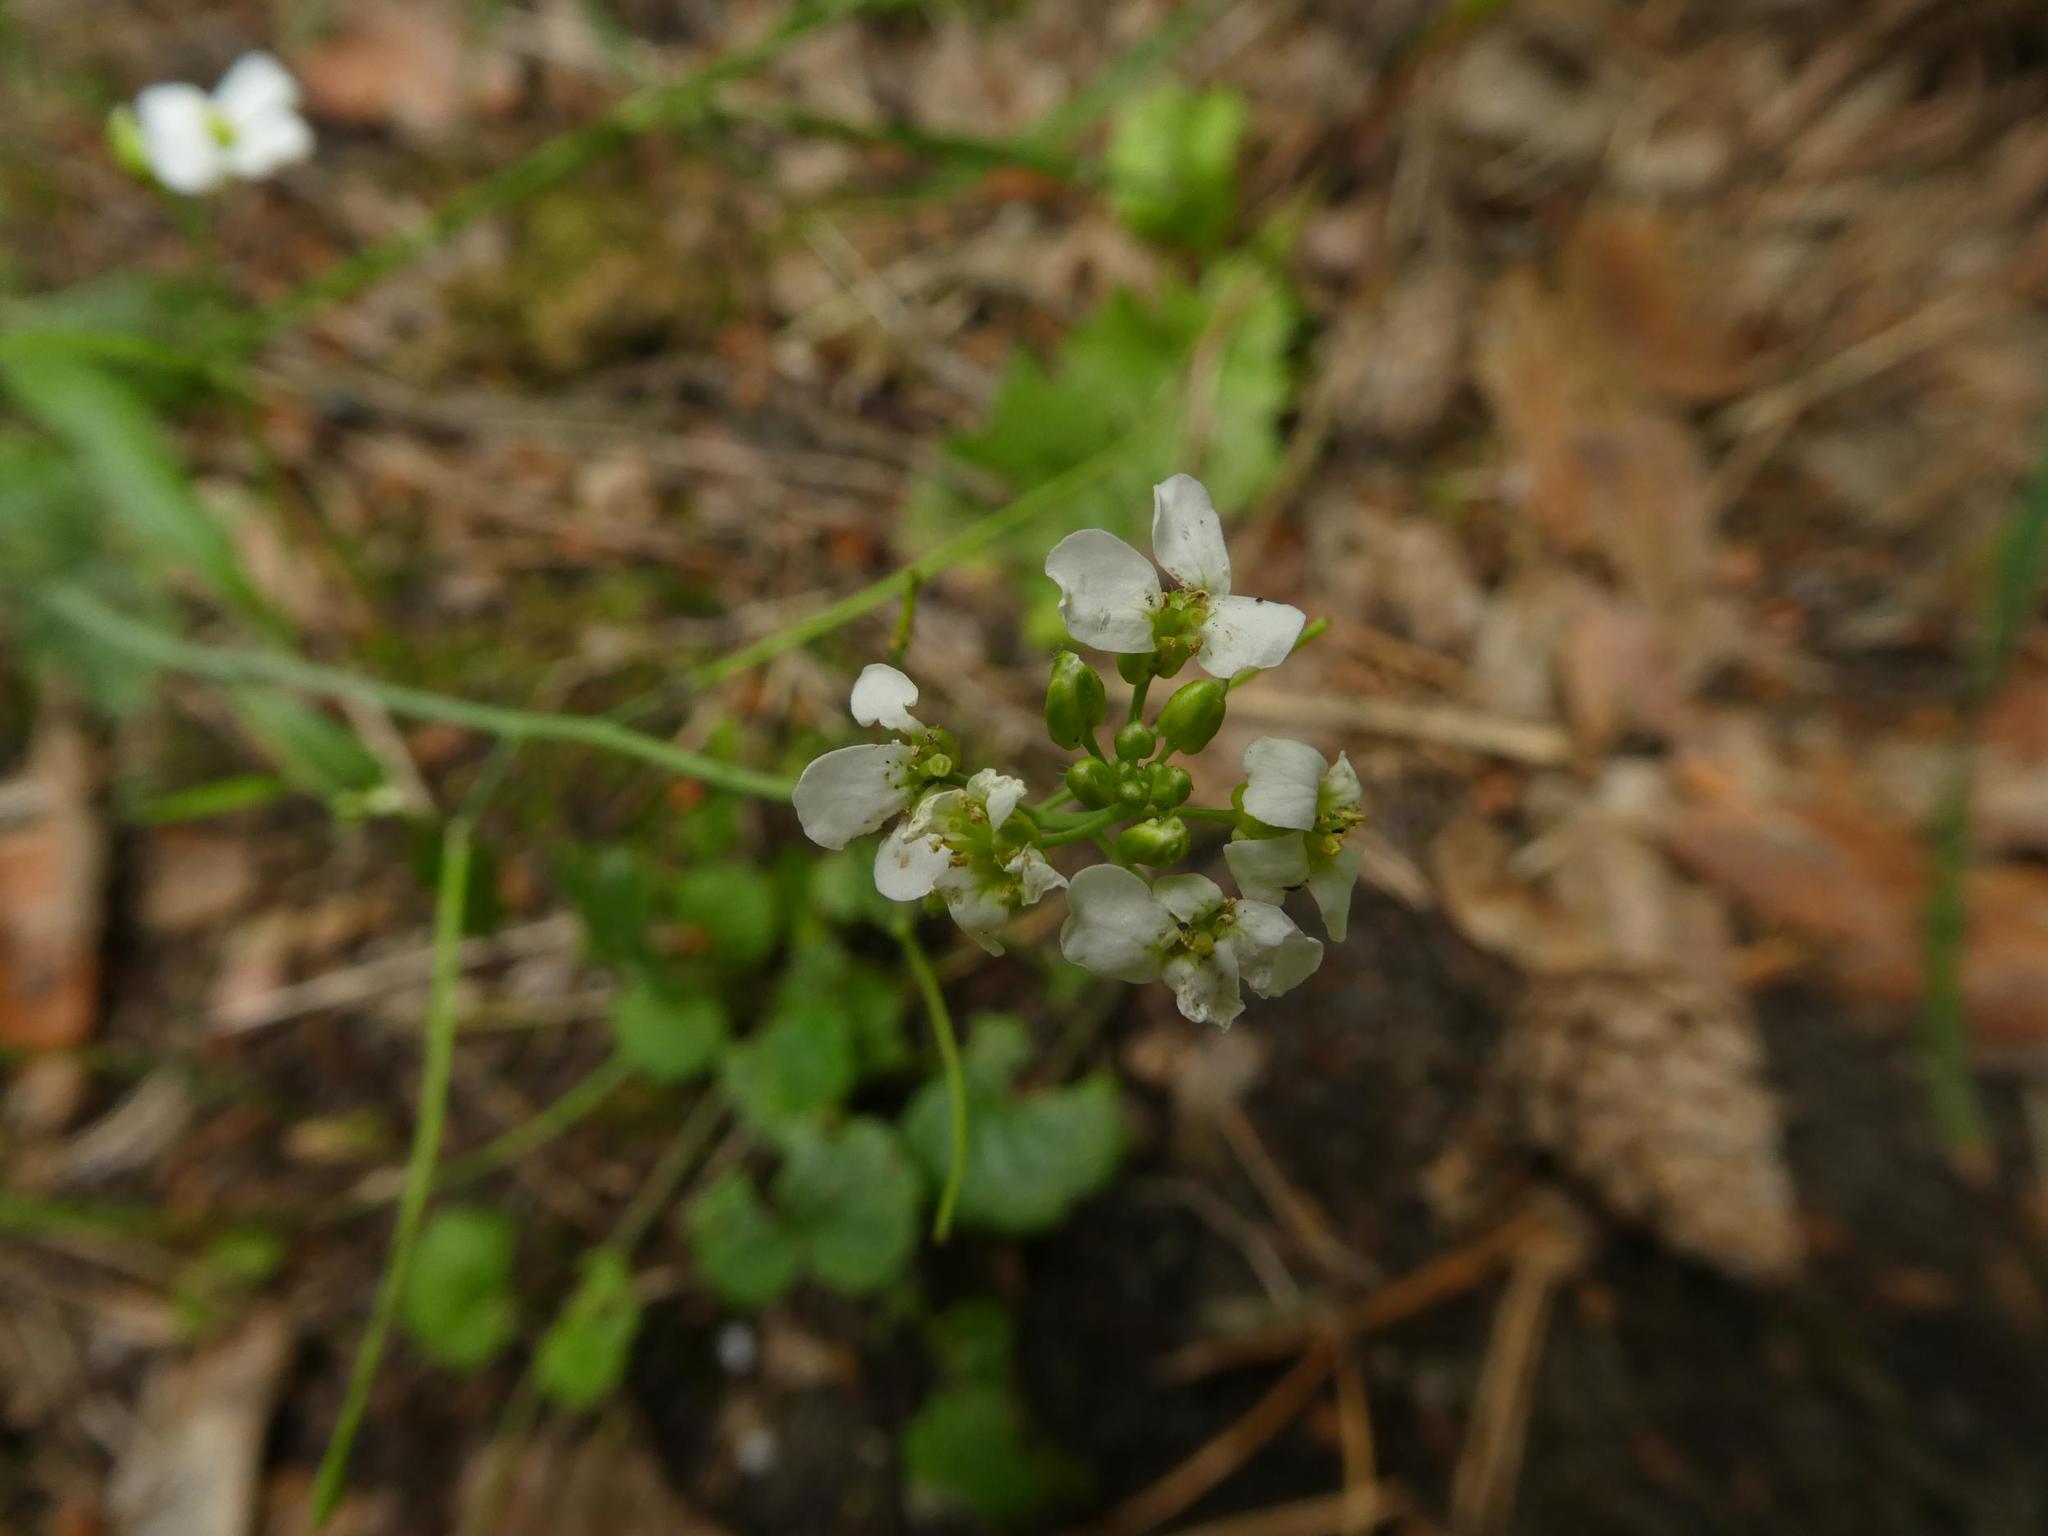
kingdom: Plantae
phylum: Tracheophyta
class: Magnoliopsida
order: Brassicales
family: Brassicaceae
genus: Cardamine
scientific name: Cardamine pratensis
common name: Cuckoo flower
